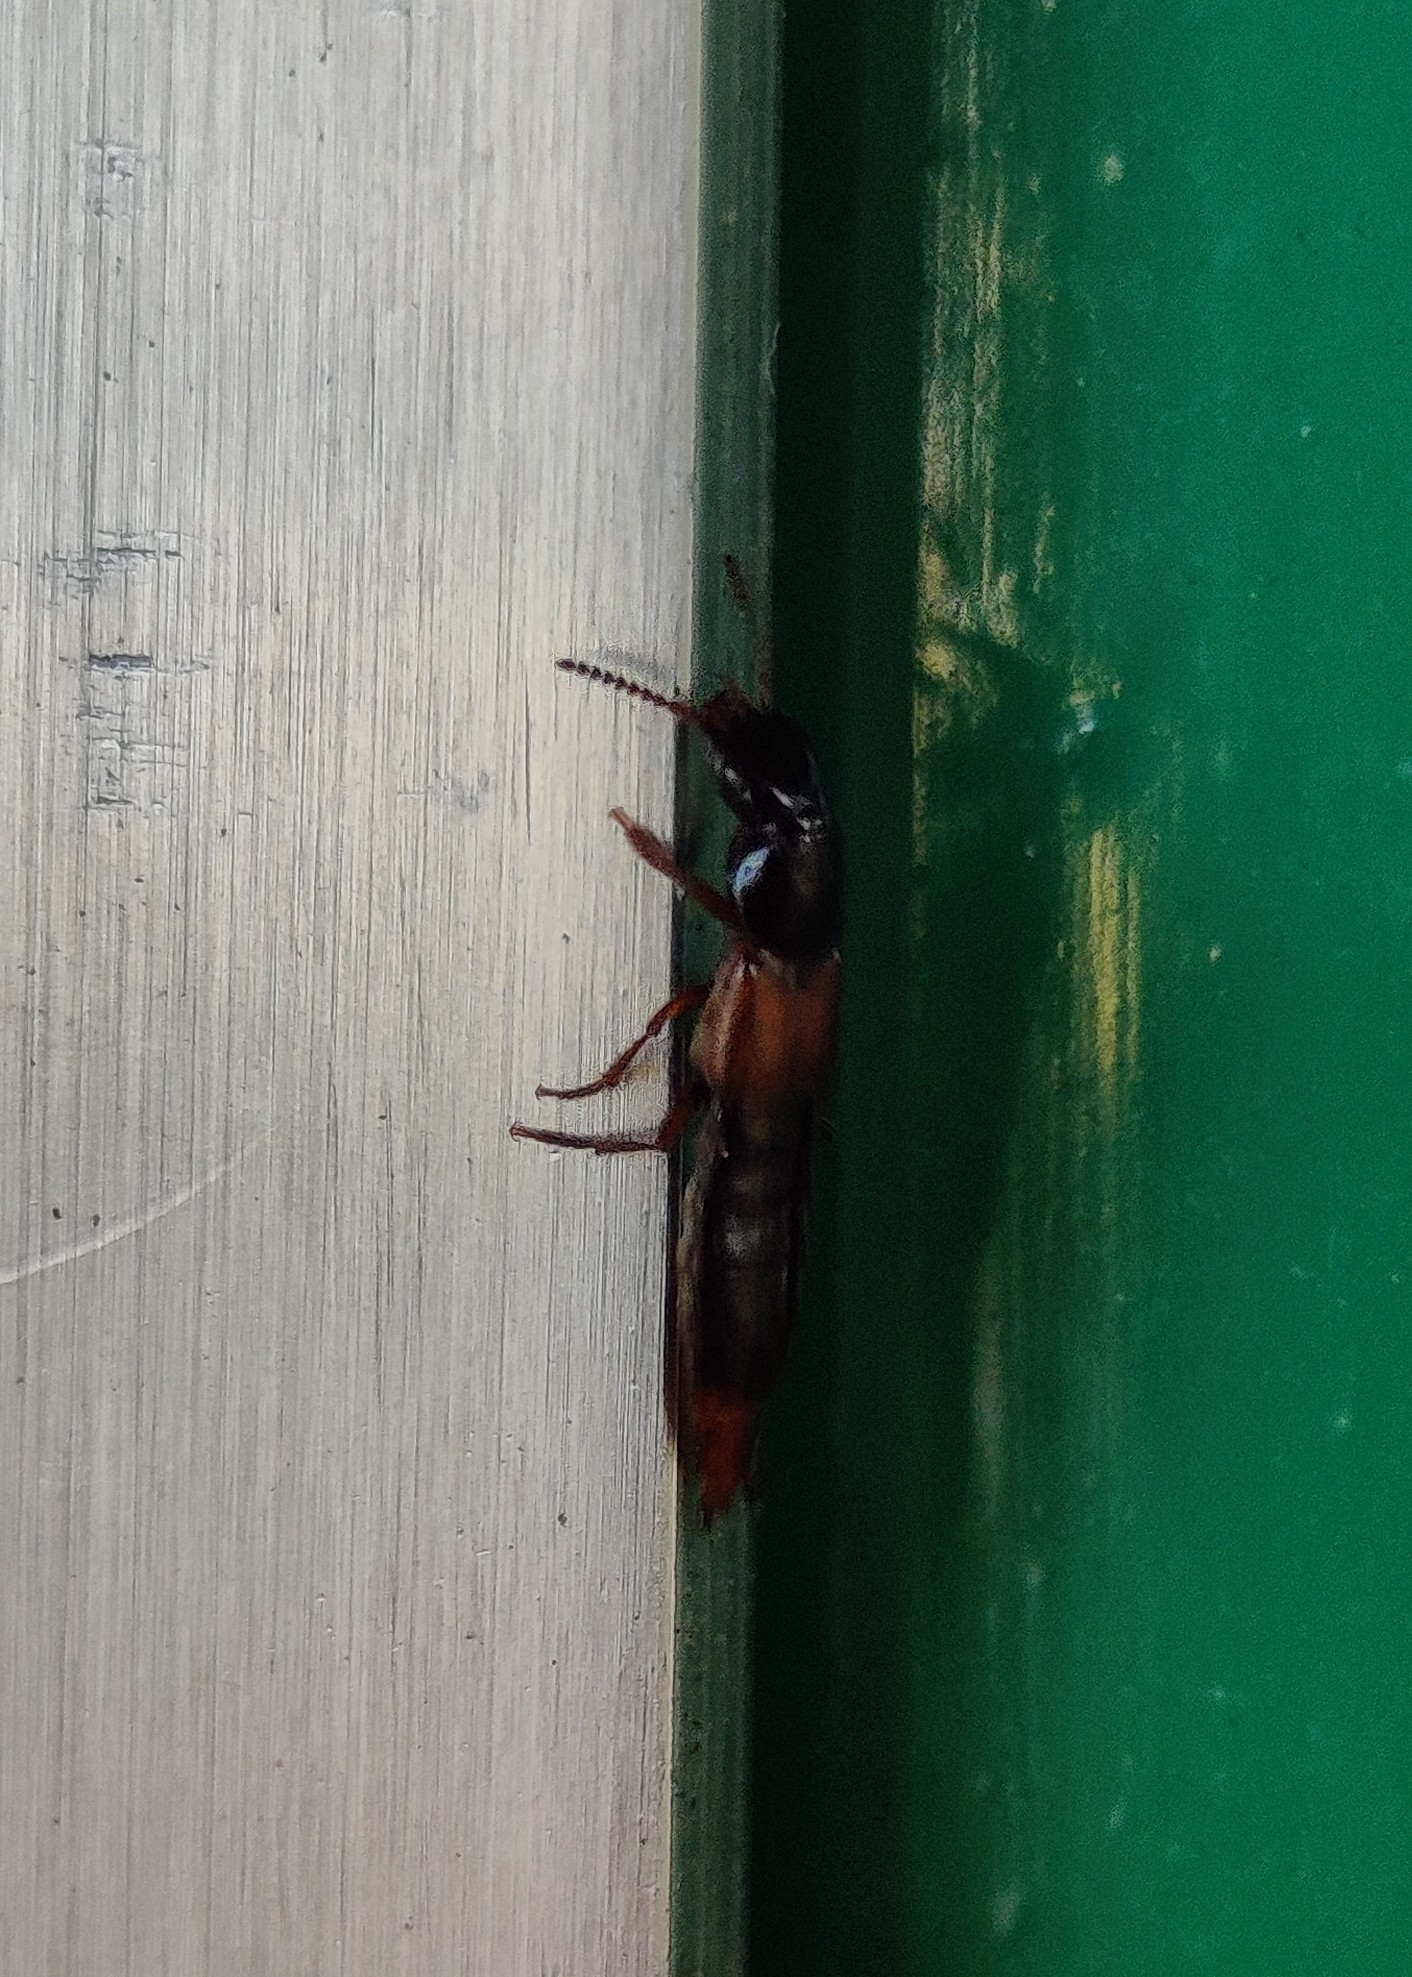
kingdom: Animalia
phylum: Arthropoda
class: Insecta
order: Coleoptera
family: Staphylinidae
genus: Quedius
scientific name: Quedius cruentus
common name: Rove beetle
